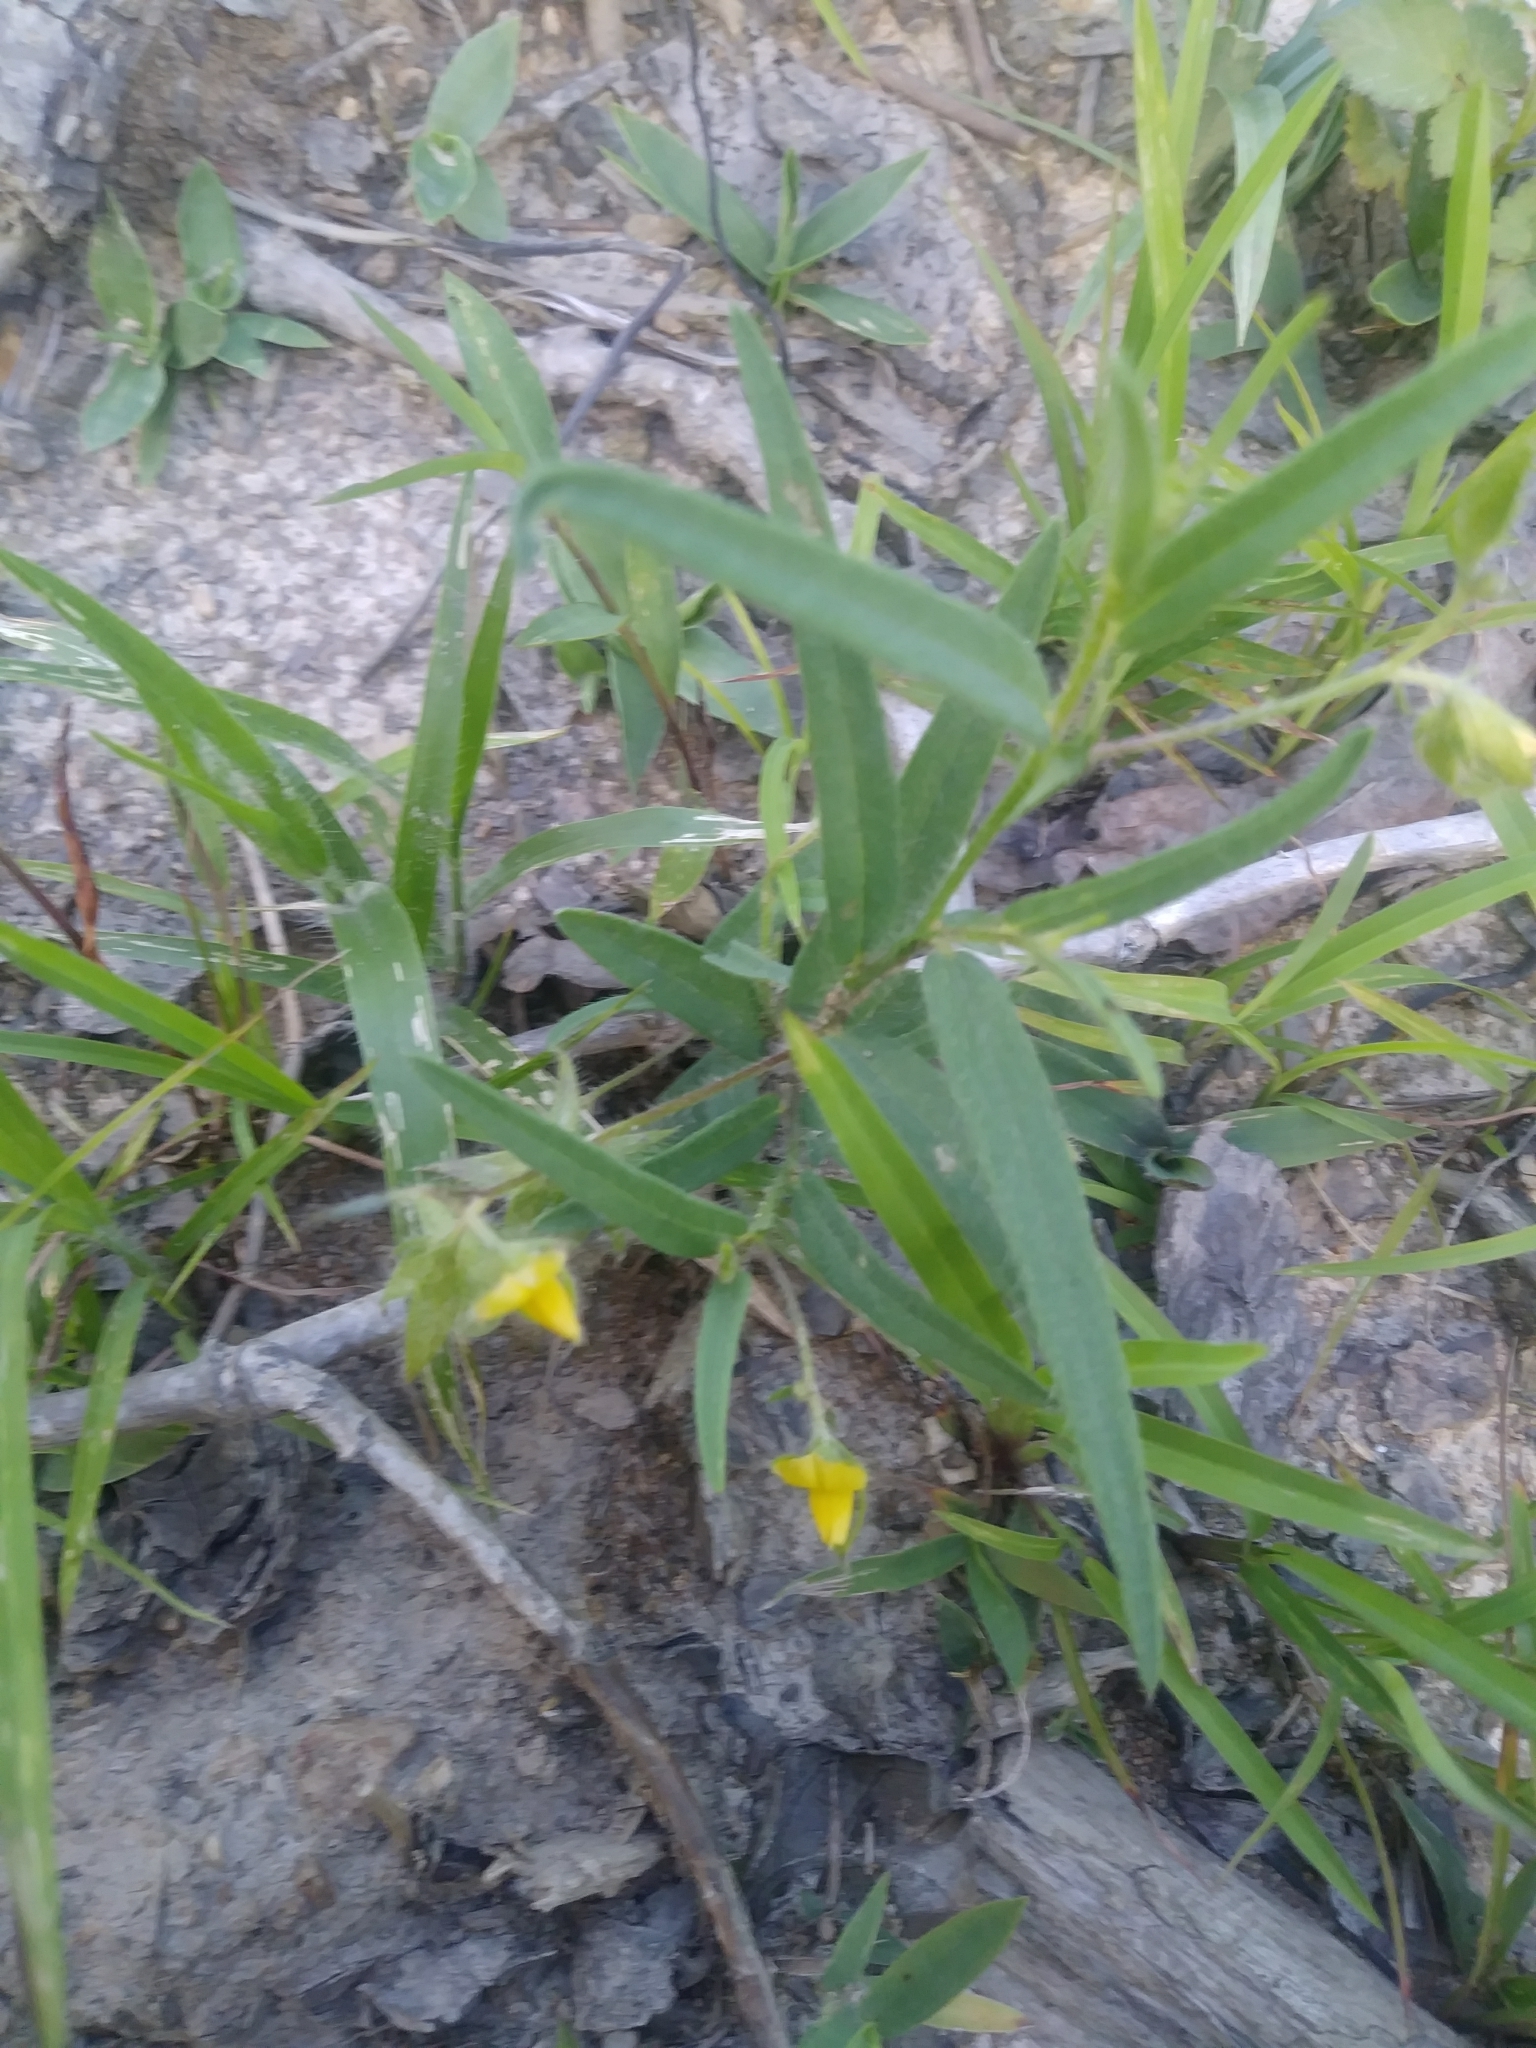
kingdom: Plantae
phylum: Tracheophyta
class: Magnoliopsida
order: Fabales
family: Fabaceae
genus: Crotalaria
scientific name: Crotalaria sagittalis
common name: Arrowhead rattlebox
